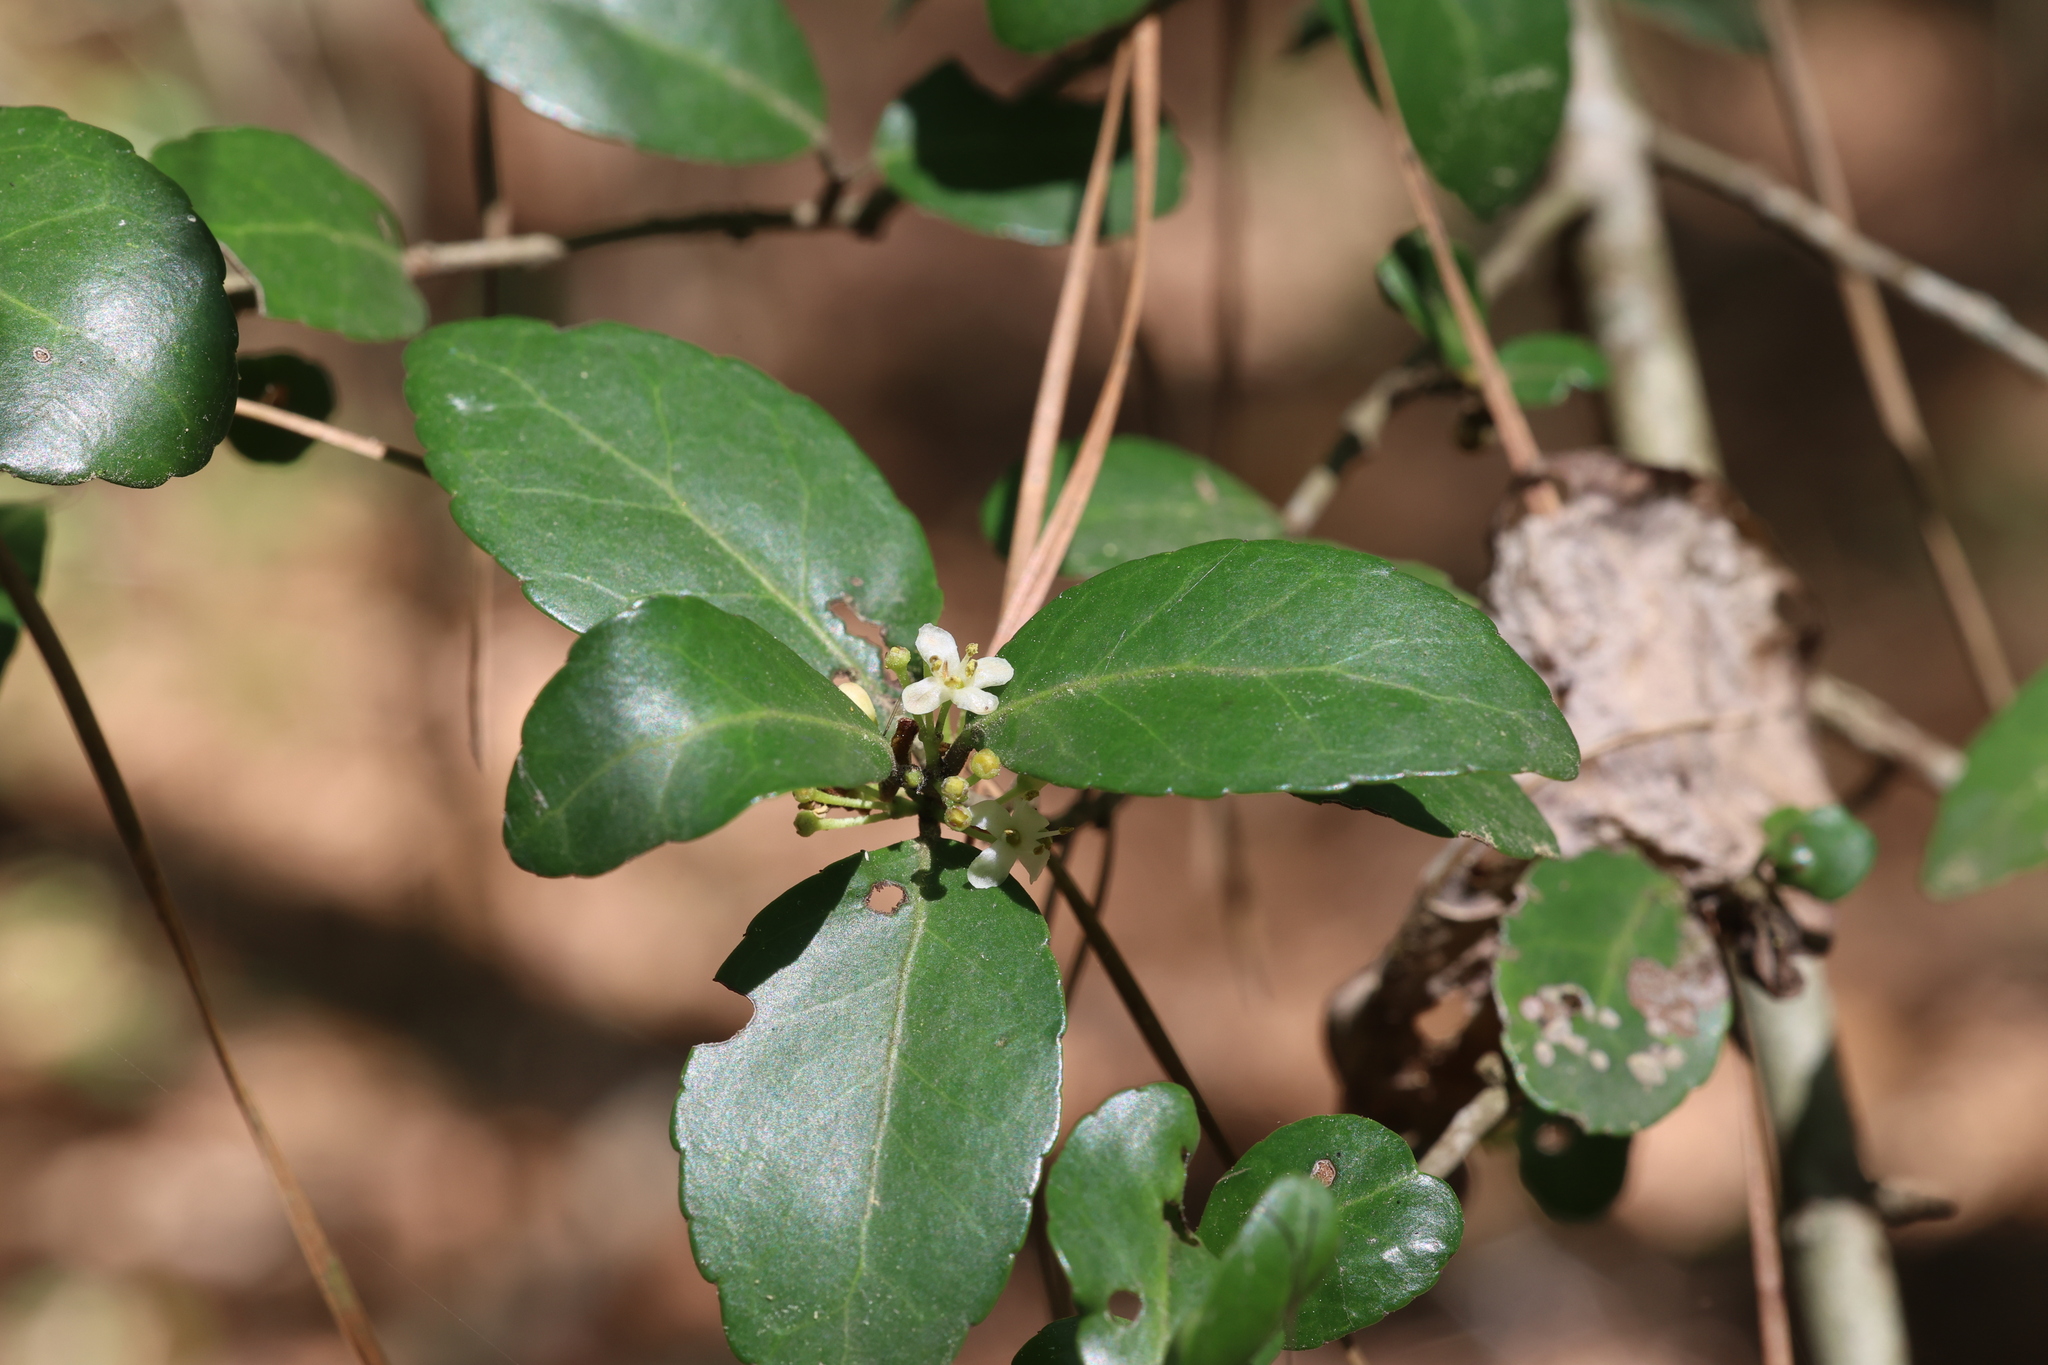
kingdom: Plantae
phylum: Tracheophyta
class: Magnoliopsida
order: Aquifoliales
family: Aquifoliaceae
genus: Ilex
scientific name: Ilex vomitoria
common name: Yaupon holly
